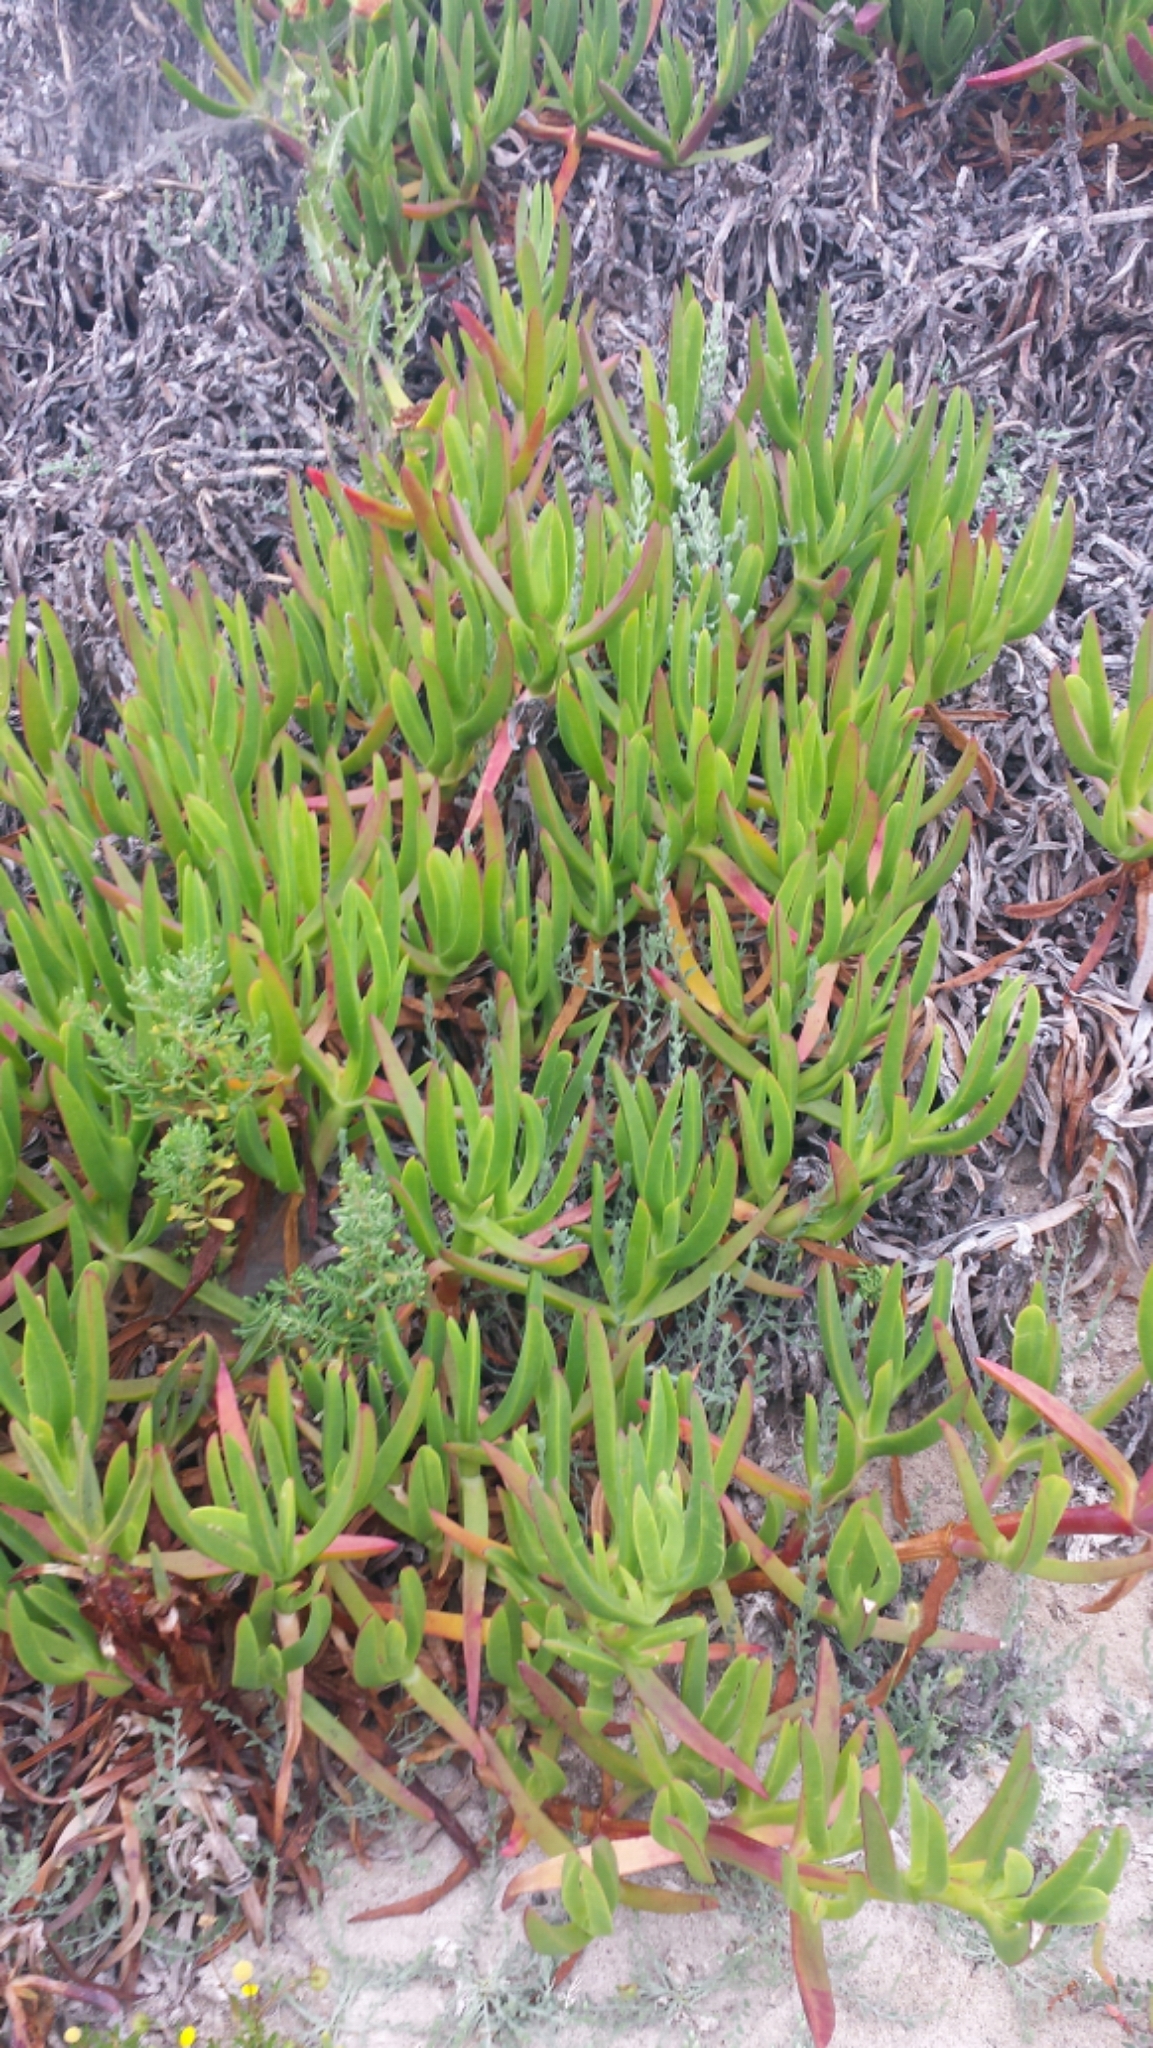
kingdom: Plantae
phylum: Tracheophyta
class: Magnoliopsida
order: Caryophyllales
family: Aizoaceae
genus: Carpobrotus
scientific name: Carpobrotus edulis
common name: Hottentot-fig
